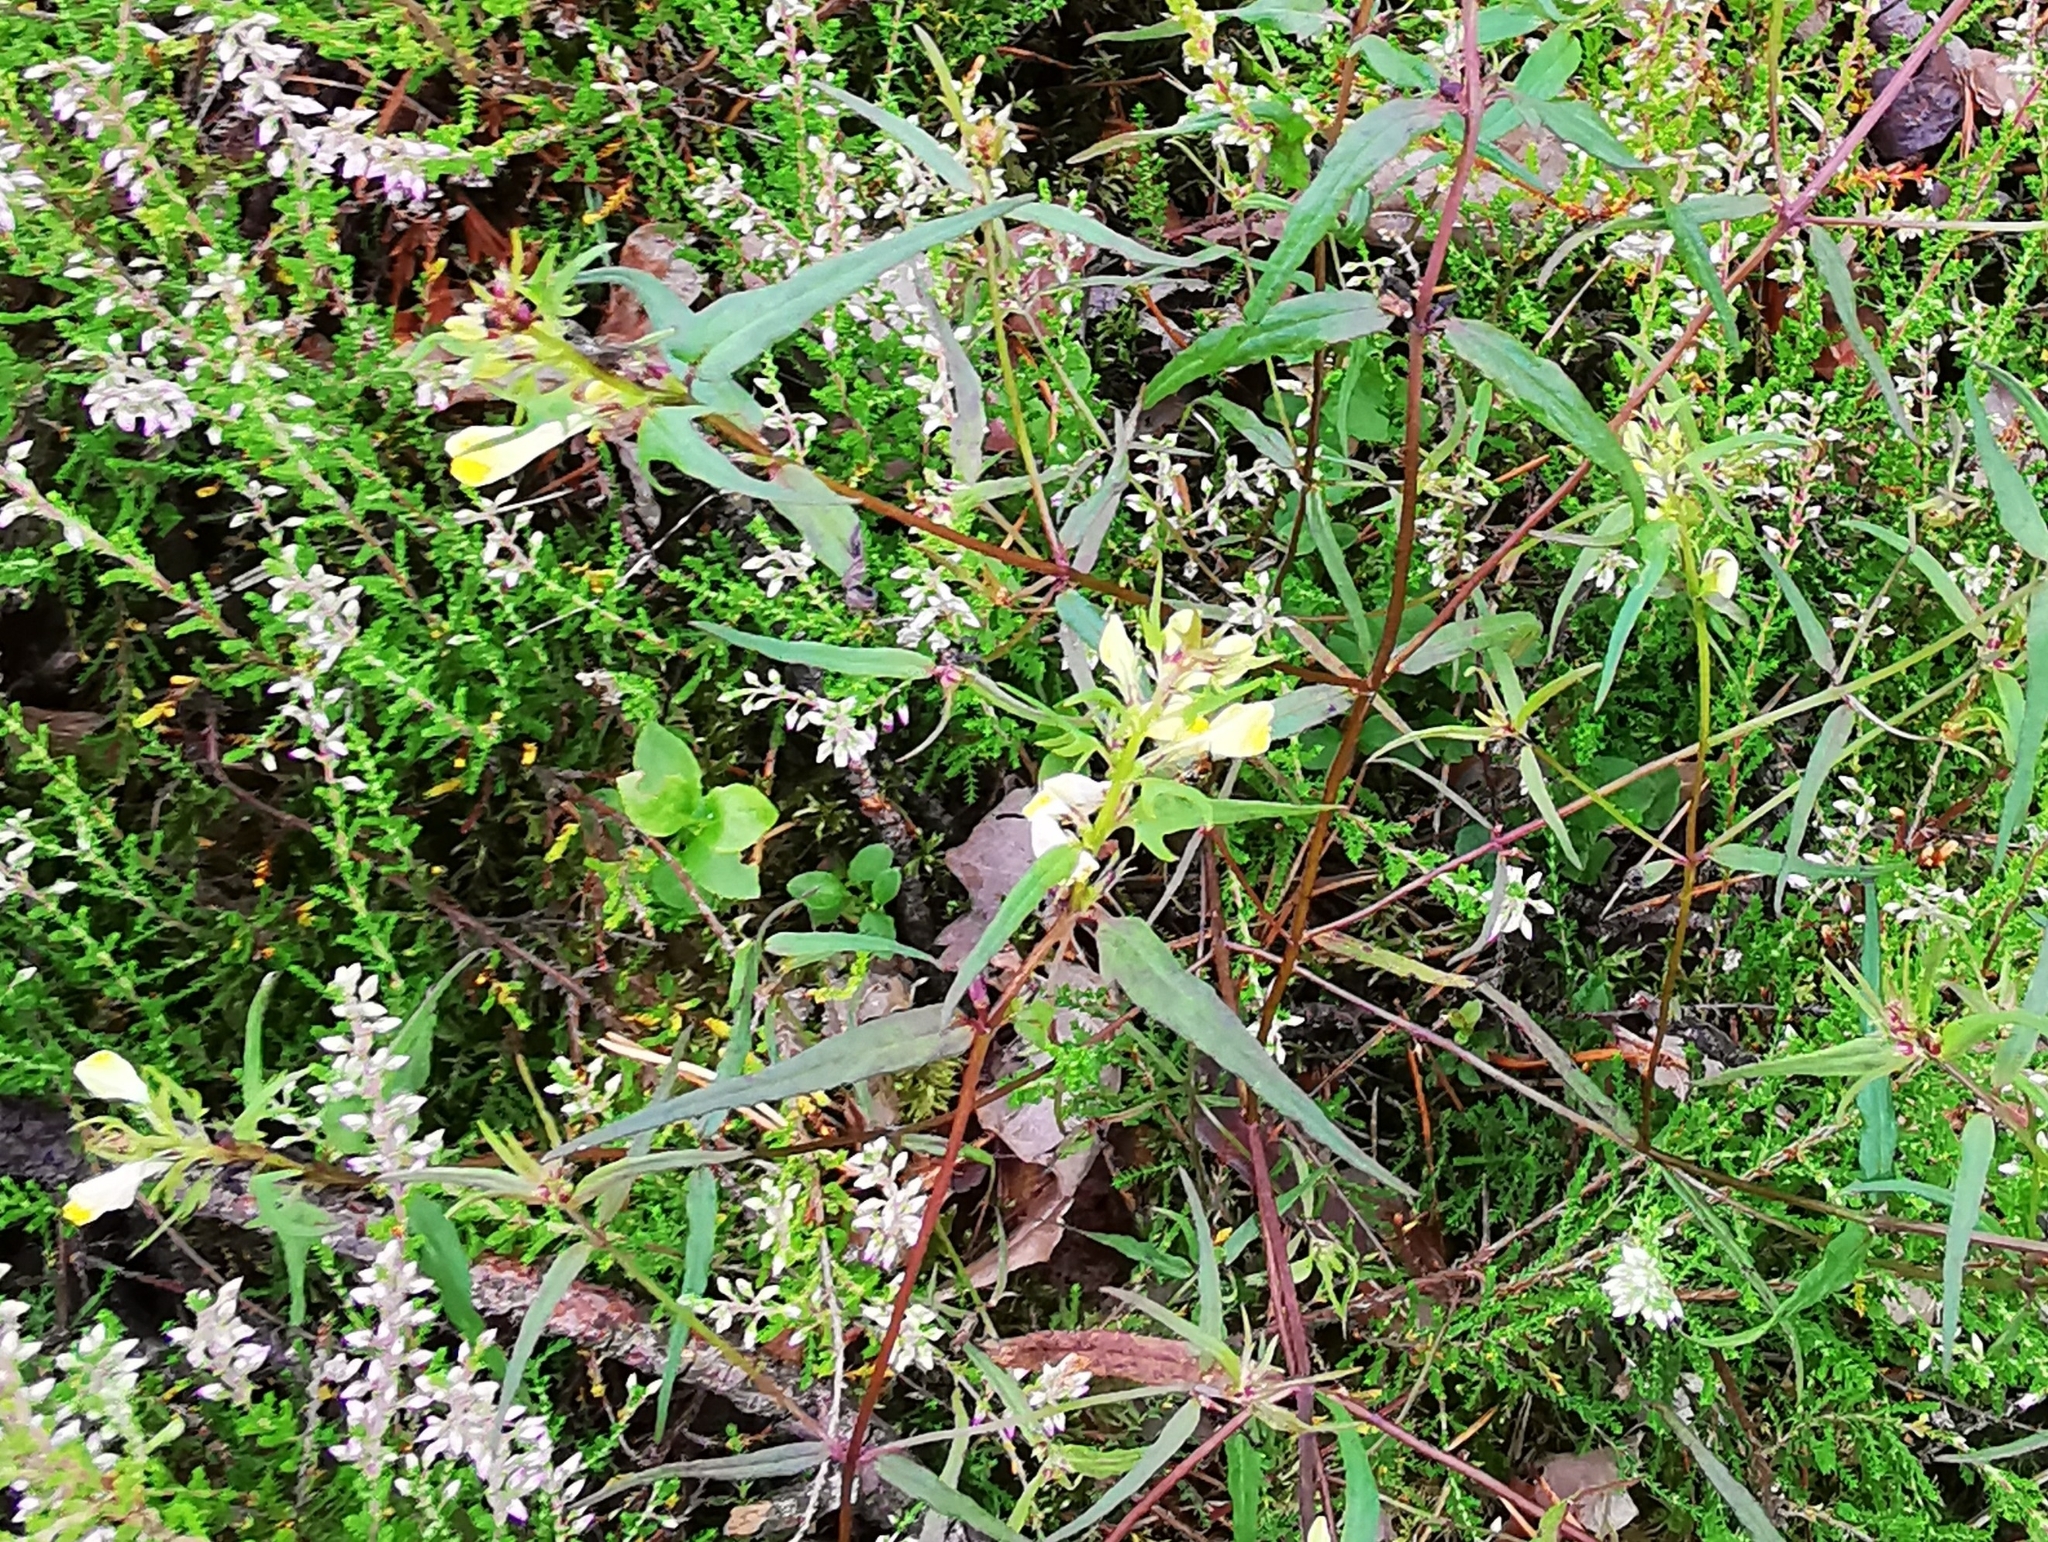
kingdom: Plantae
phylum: Tracheophyta
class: Magnoliopsida
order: Lamiales
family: Orobanchaceae
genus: Melampyrum
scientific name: Melampyrum pratense
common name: Common cow-wheat
